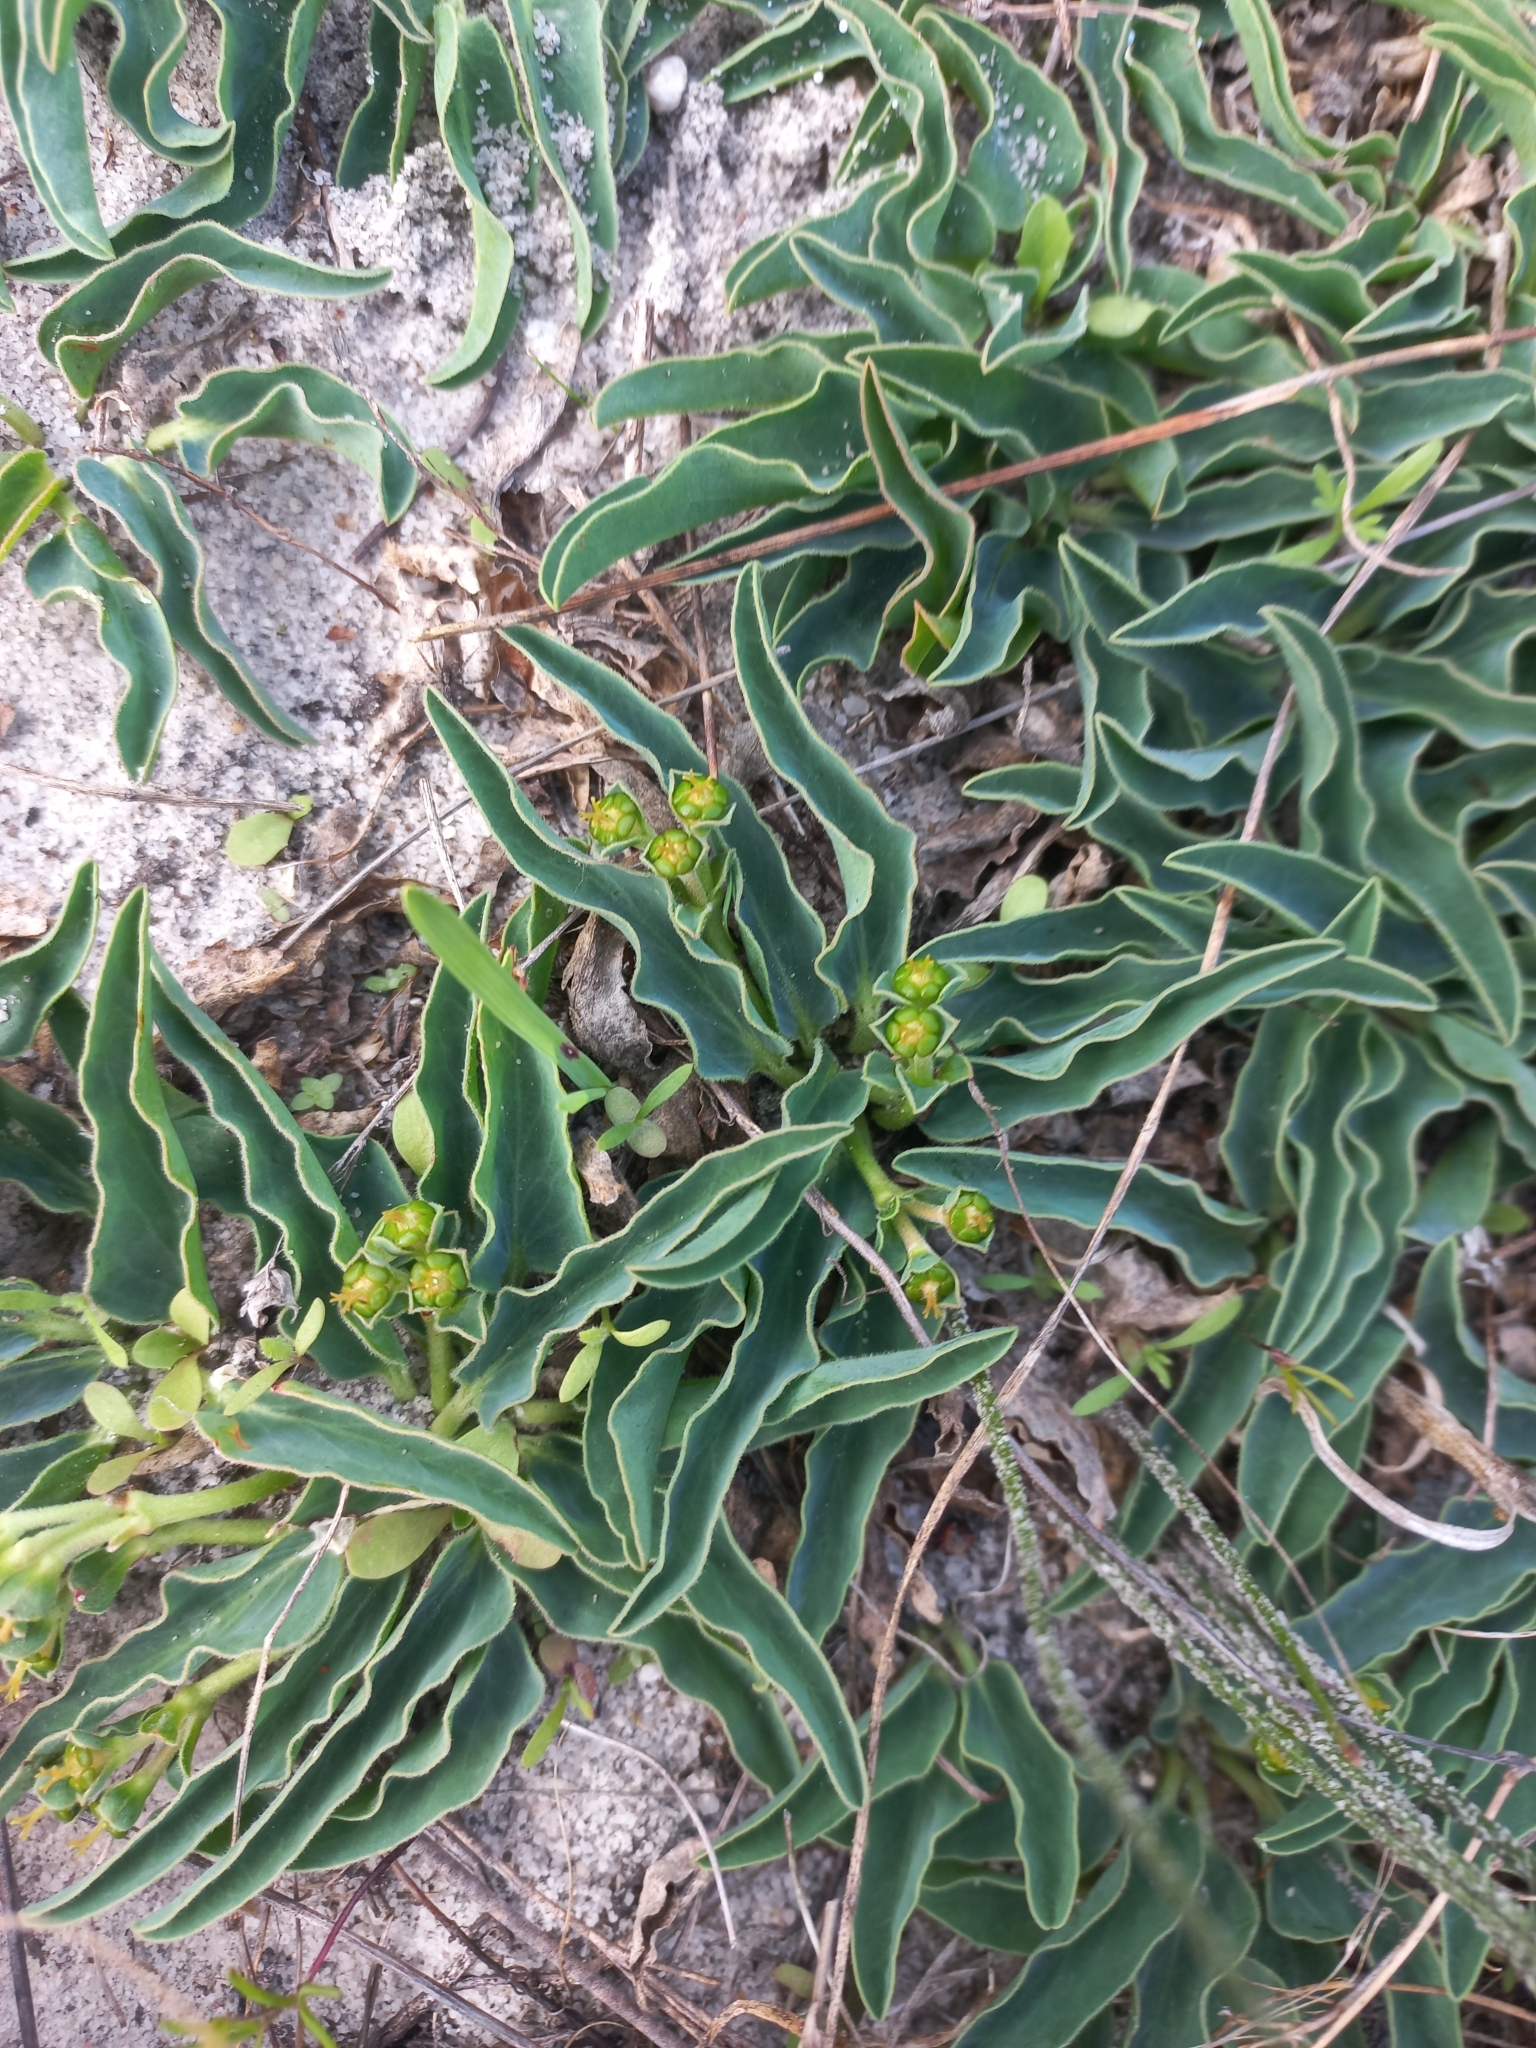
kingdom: Plantae
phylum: Tracheophyta
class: Magnoliopsida
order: Malpighiales
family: Euphorbiaceae
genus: Euphorbia
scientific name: Euphorbia tuberosa
